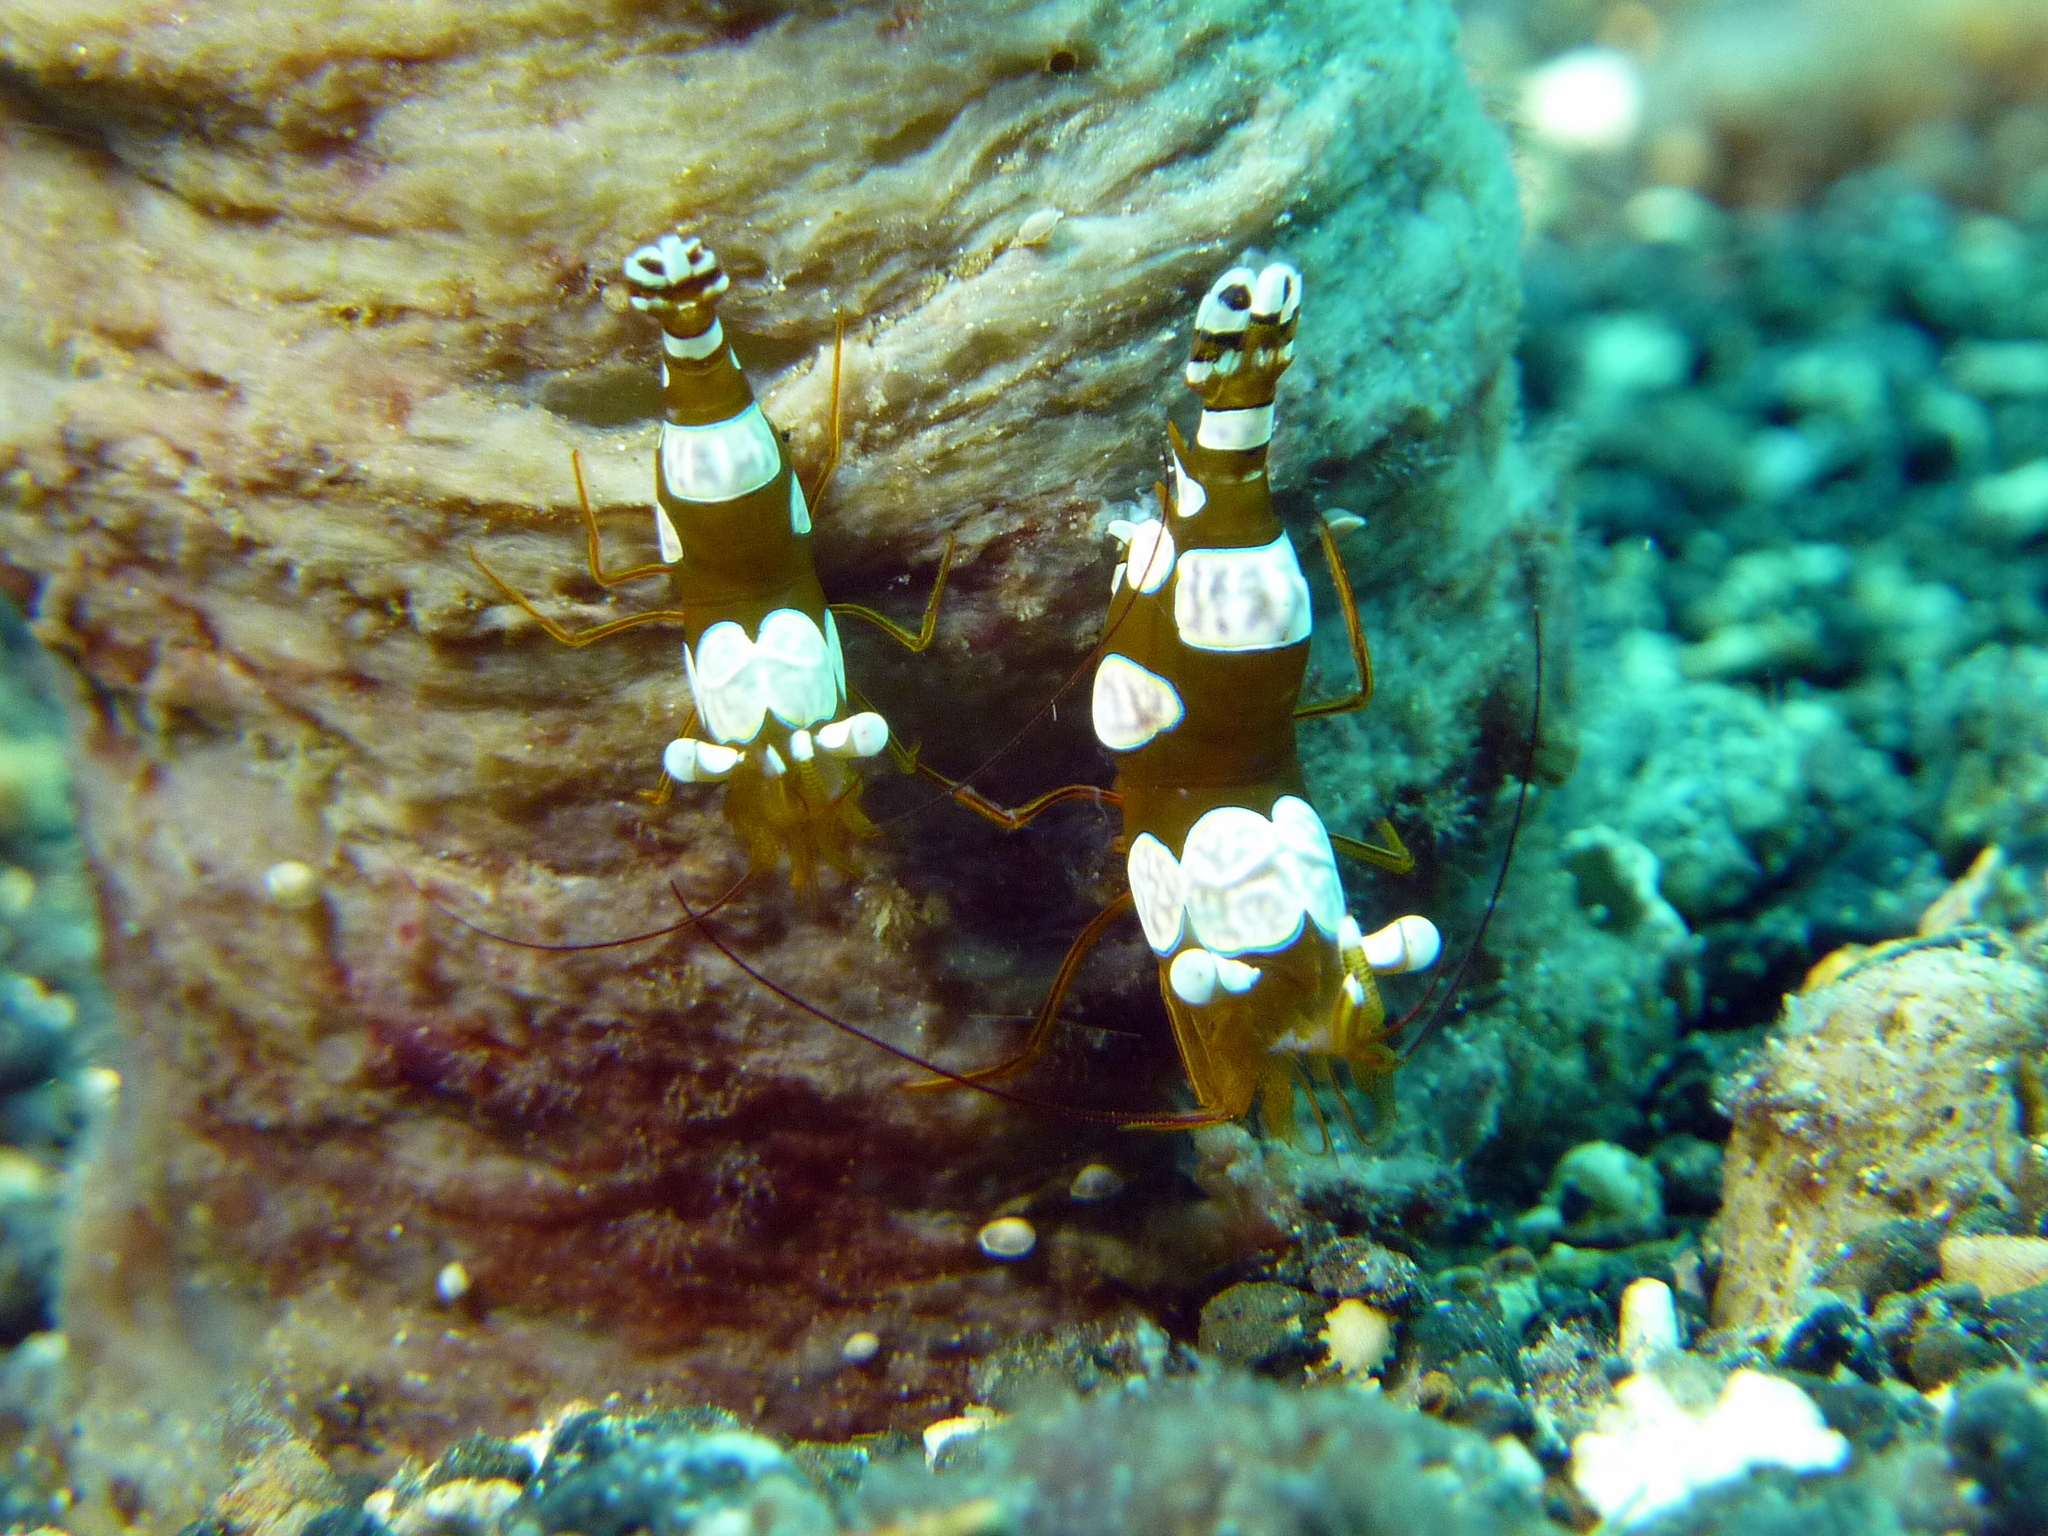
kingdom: Animalia
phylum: Arthropoda
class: Malacostraca
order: Decapoda
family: Thoridae
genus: Thor
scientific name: Thor amboinensis
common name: Squat anemone shrimp
